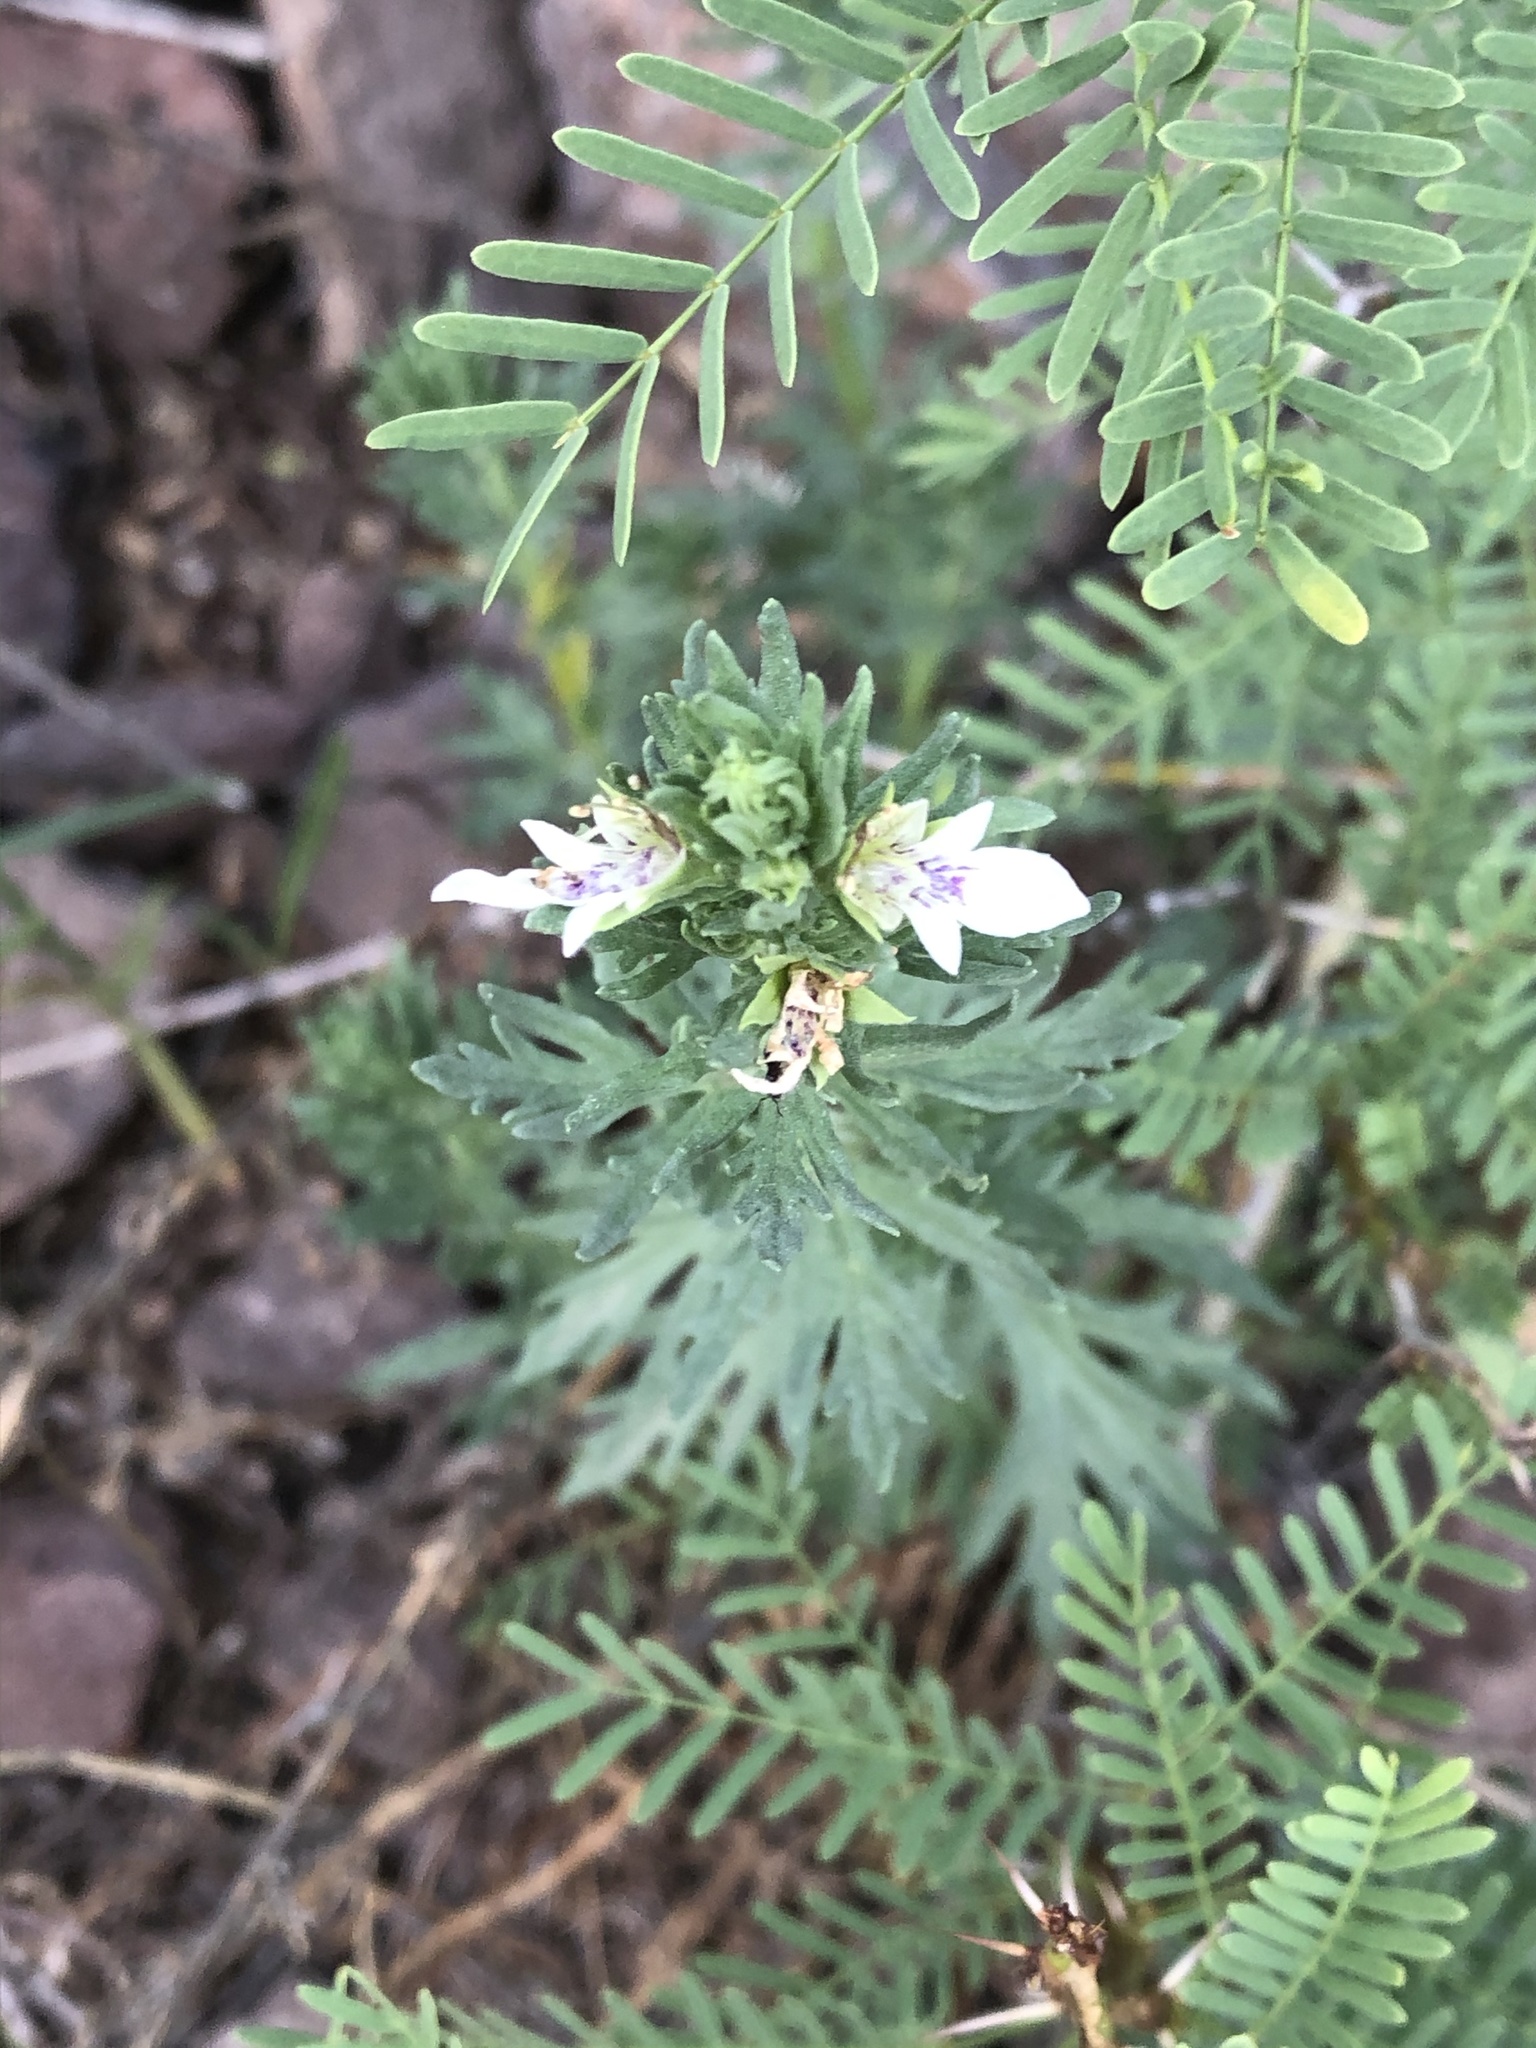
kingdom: Plantae
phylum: Tracheophyta
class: Magnoliopsida
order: Lamiales
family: Lamiaceae
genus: Teucrium
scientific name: Teucrium coahuilanum
